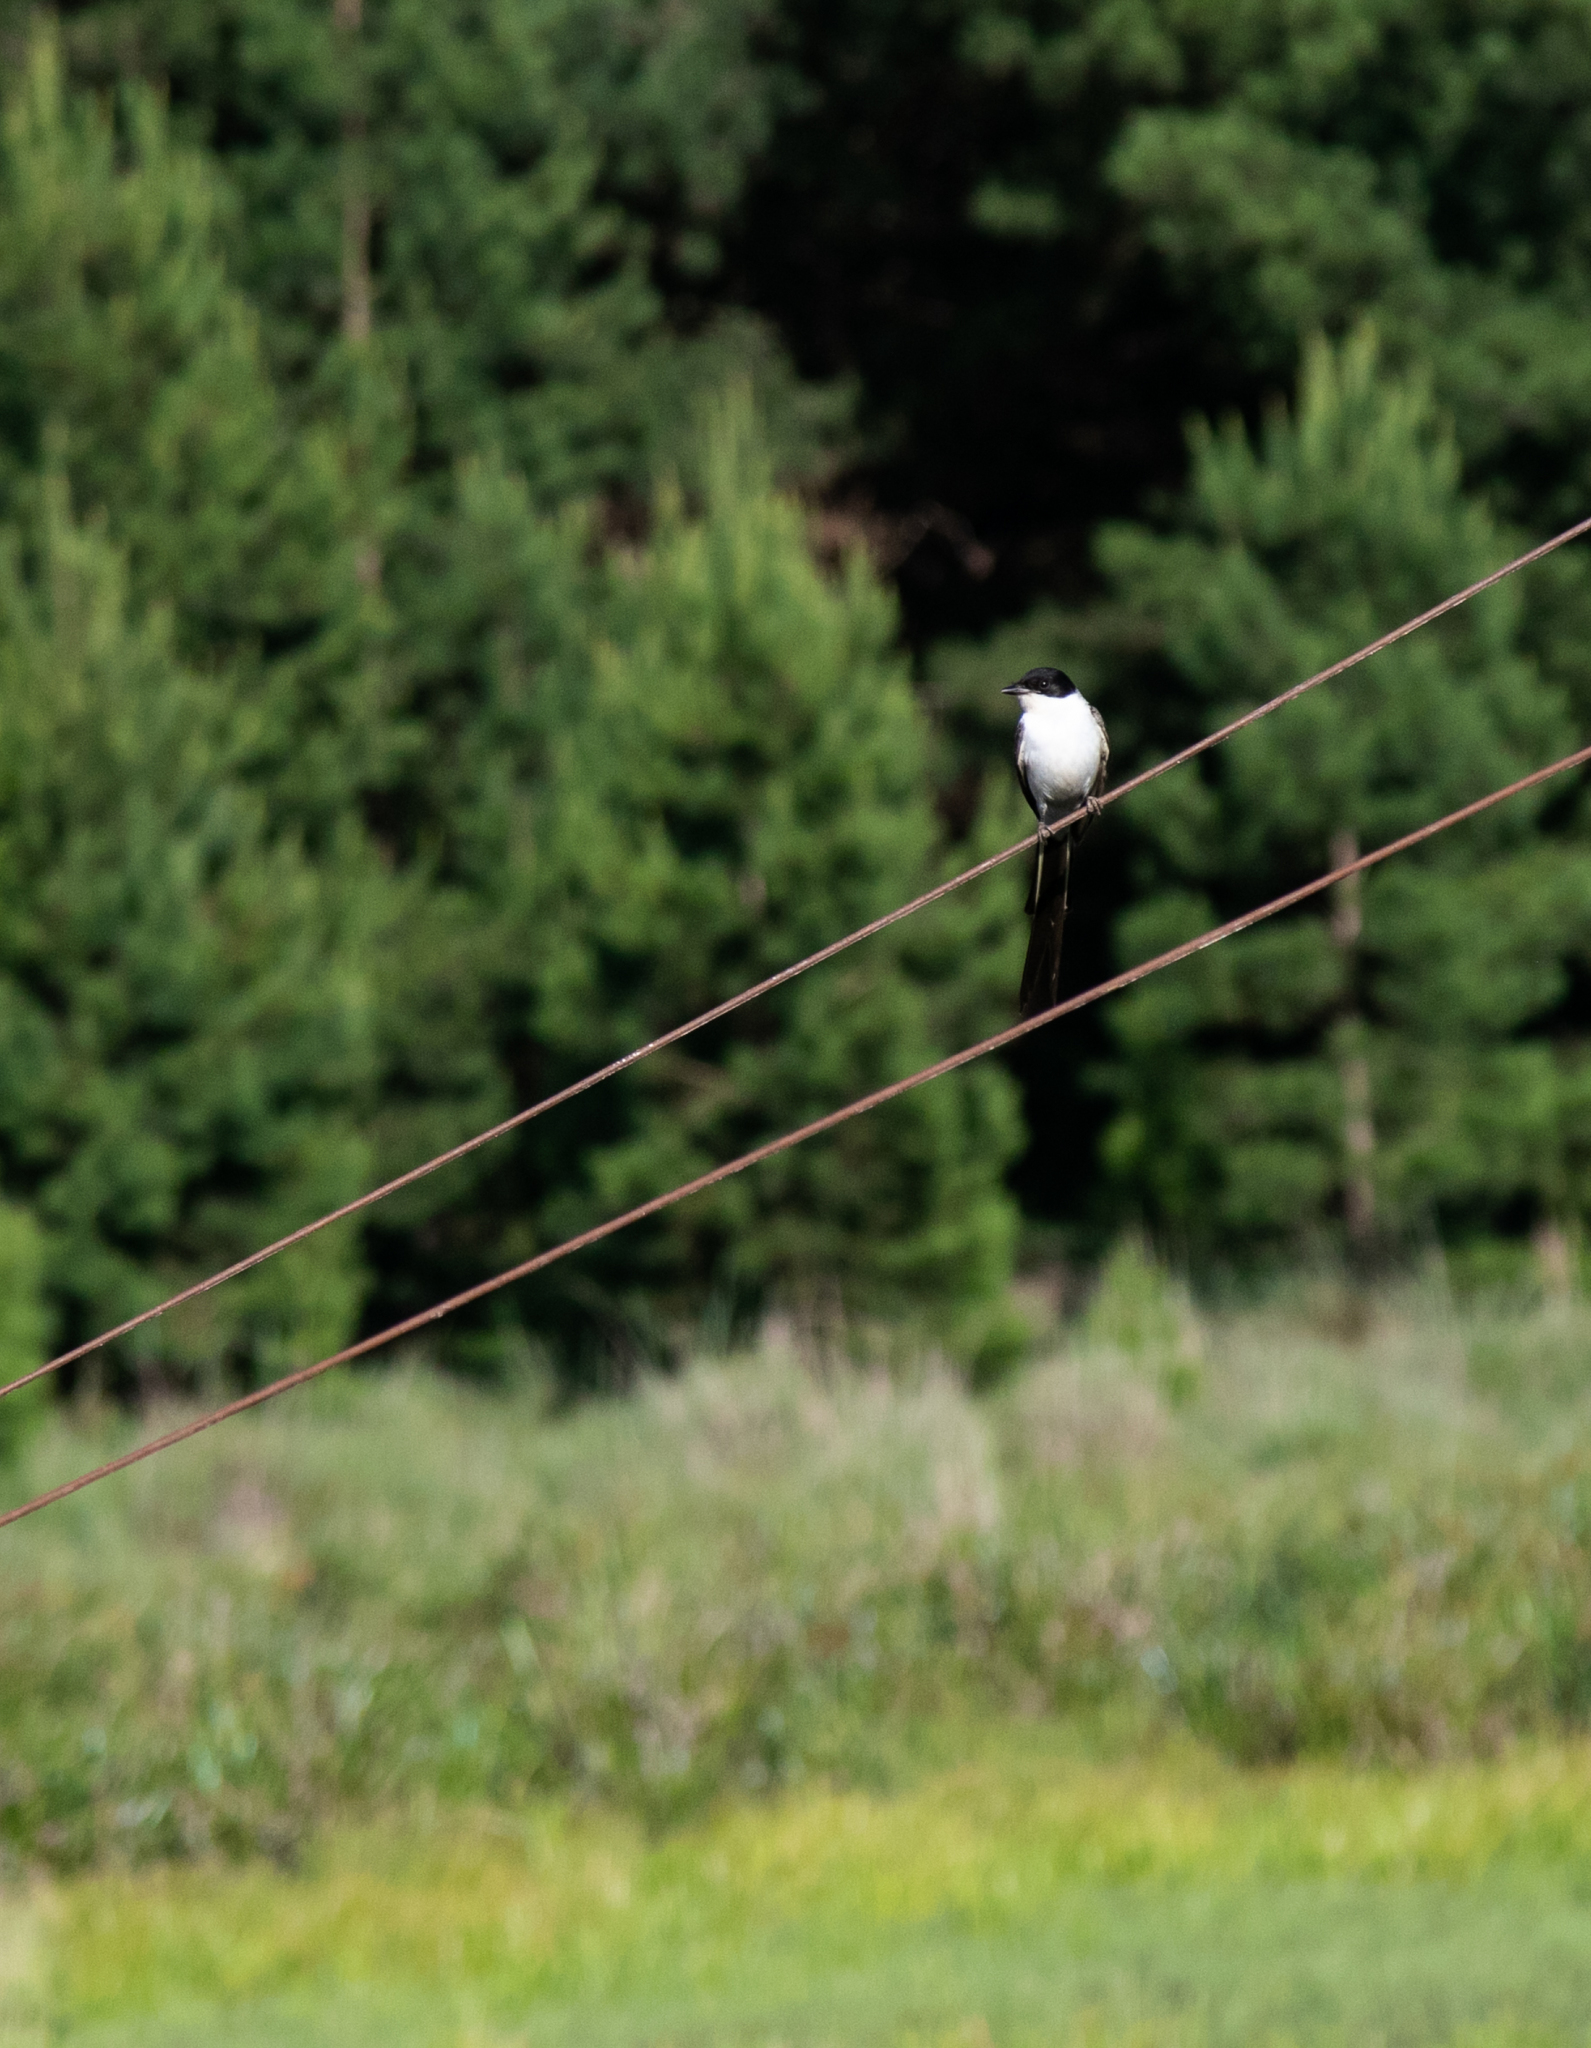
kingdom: Animalia
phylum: Chordata
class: Aves
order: Passeriformes
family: Tyrannidae
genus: Tyrannus
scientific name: Tyrannus savana
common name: Fork-tailed flycatcher
